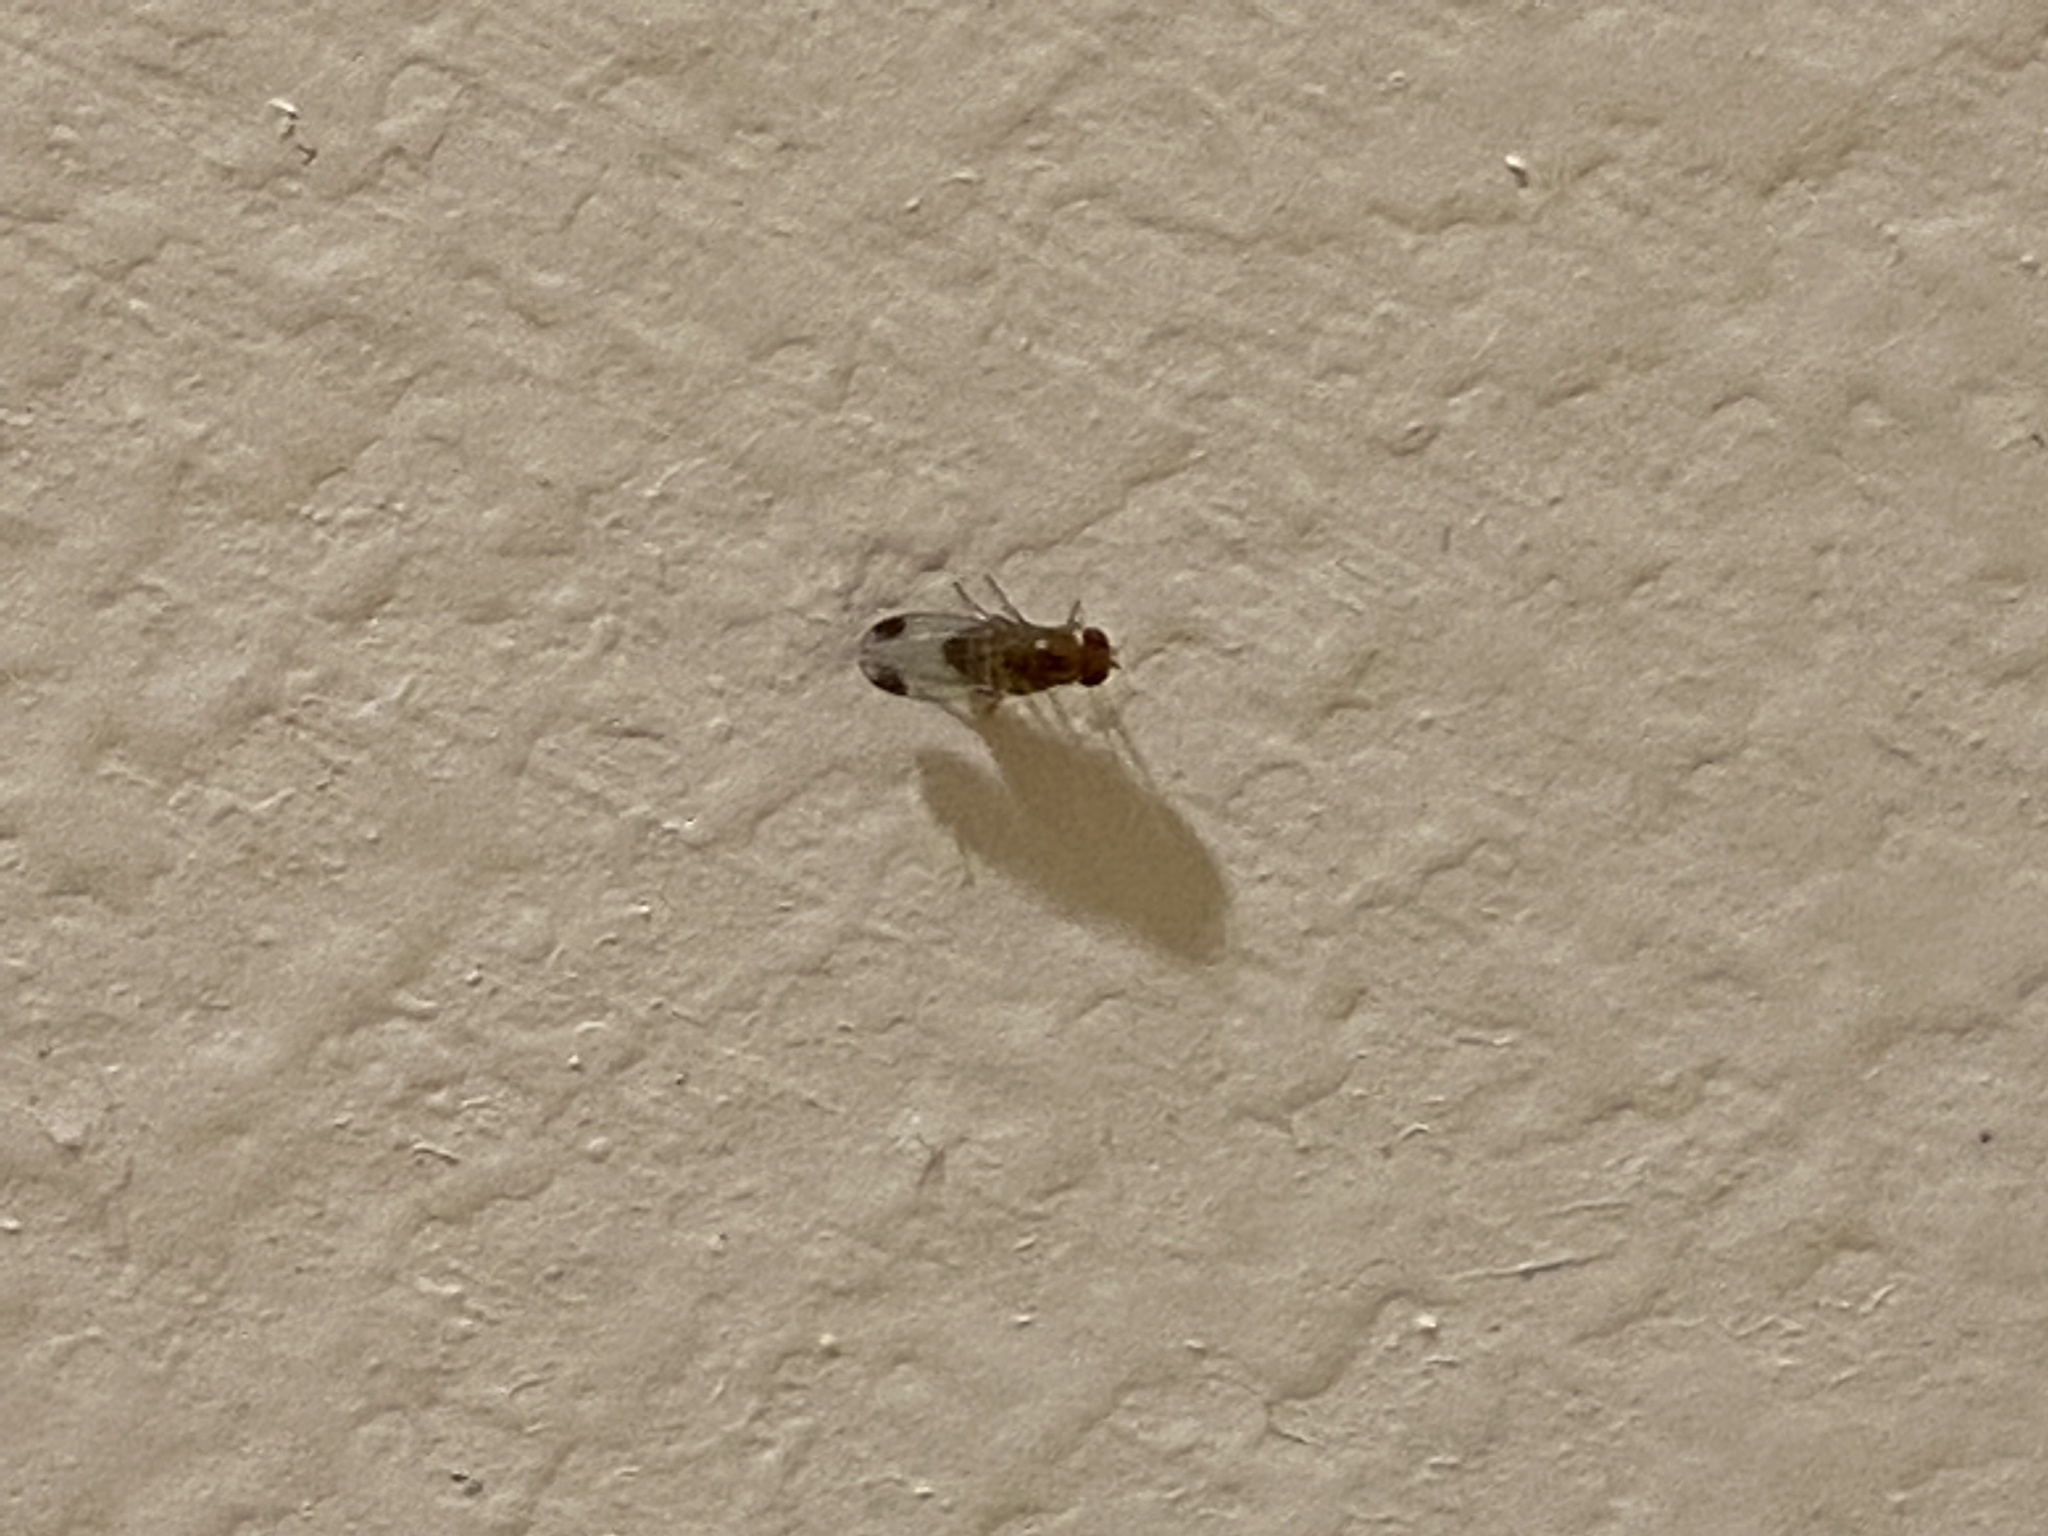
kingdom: Animalia
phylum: Arthropoda
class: Insecta
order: Diptera
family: Drosophilidae
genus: Drosophila
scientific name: Drosophila suzukii
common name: Spotted-wing drosophila
